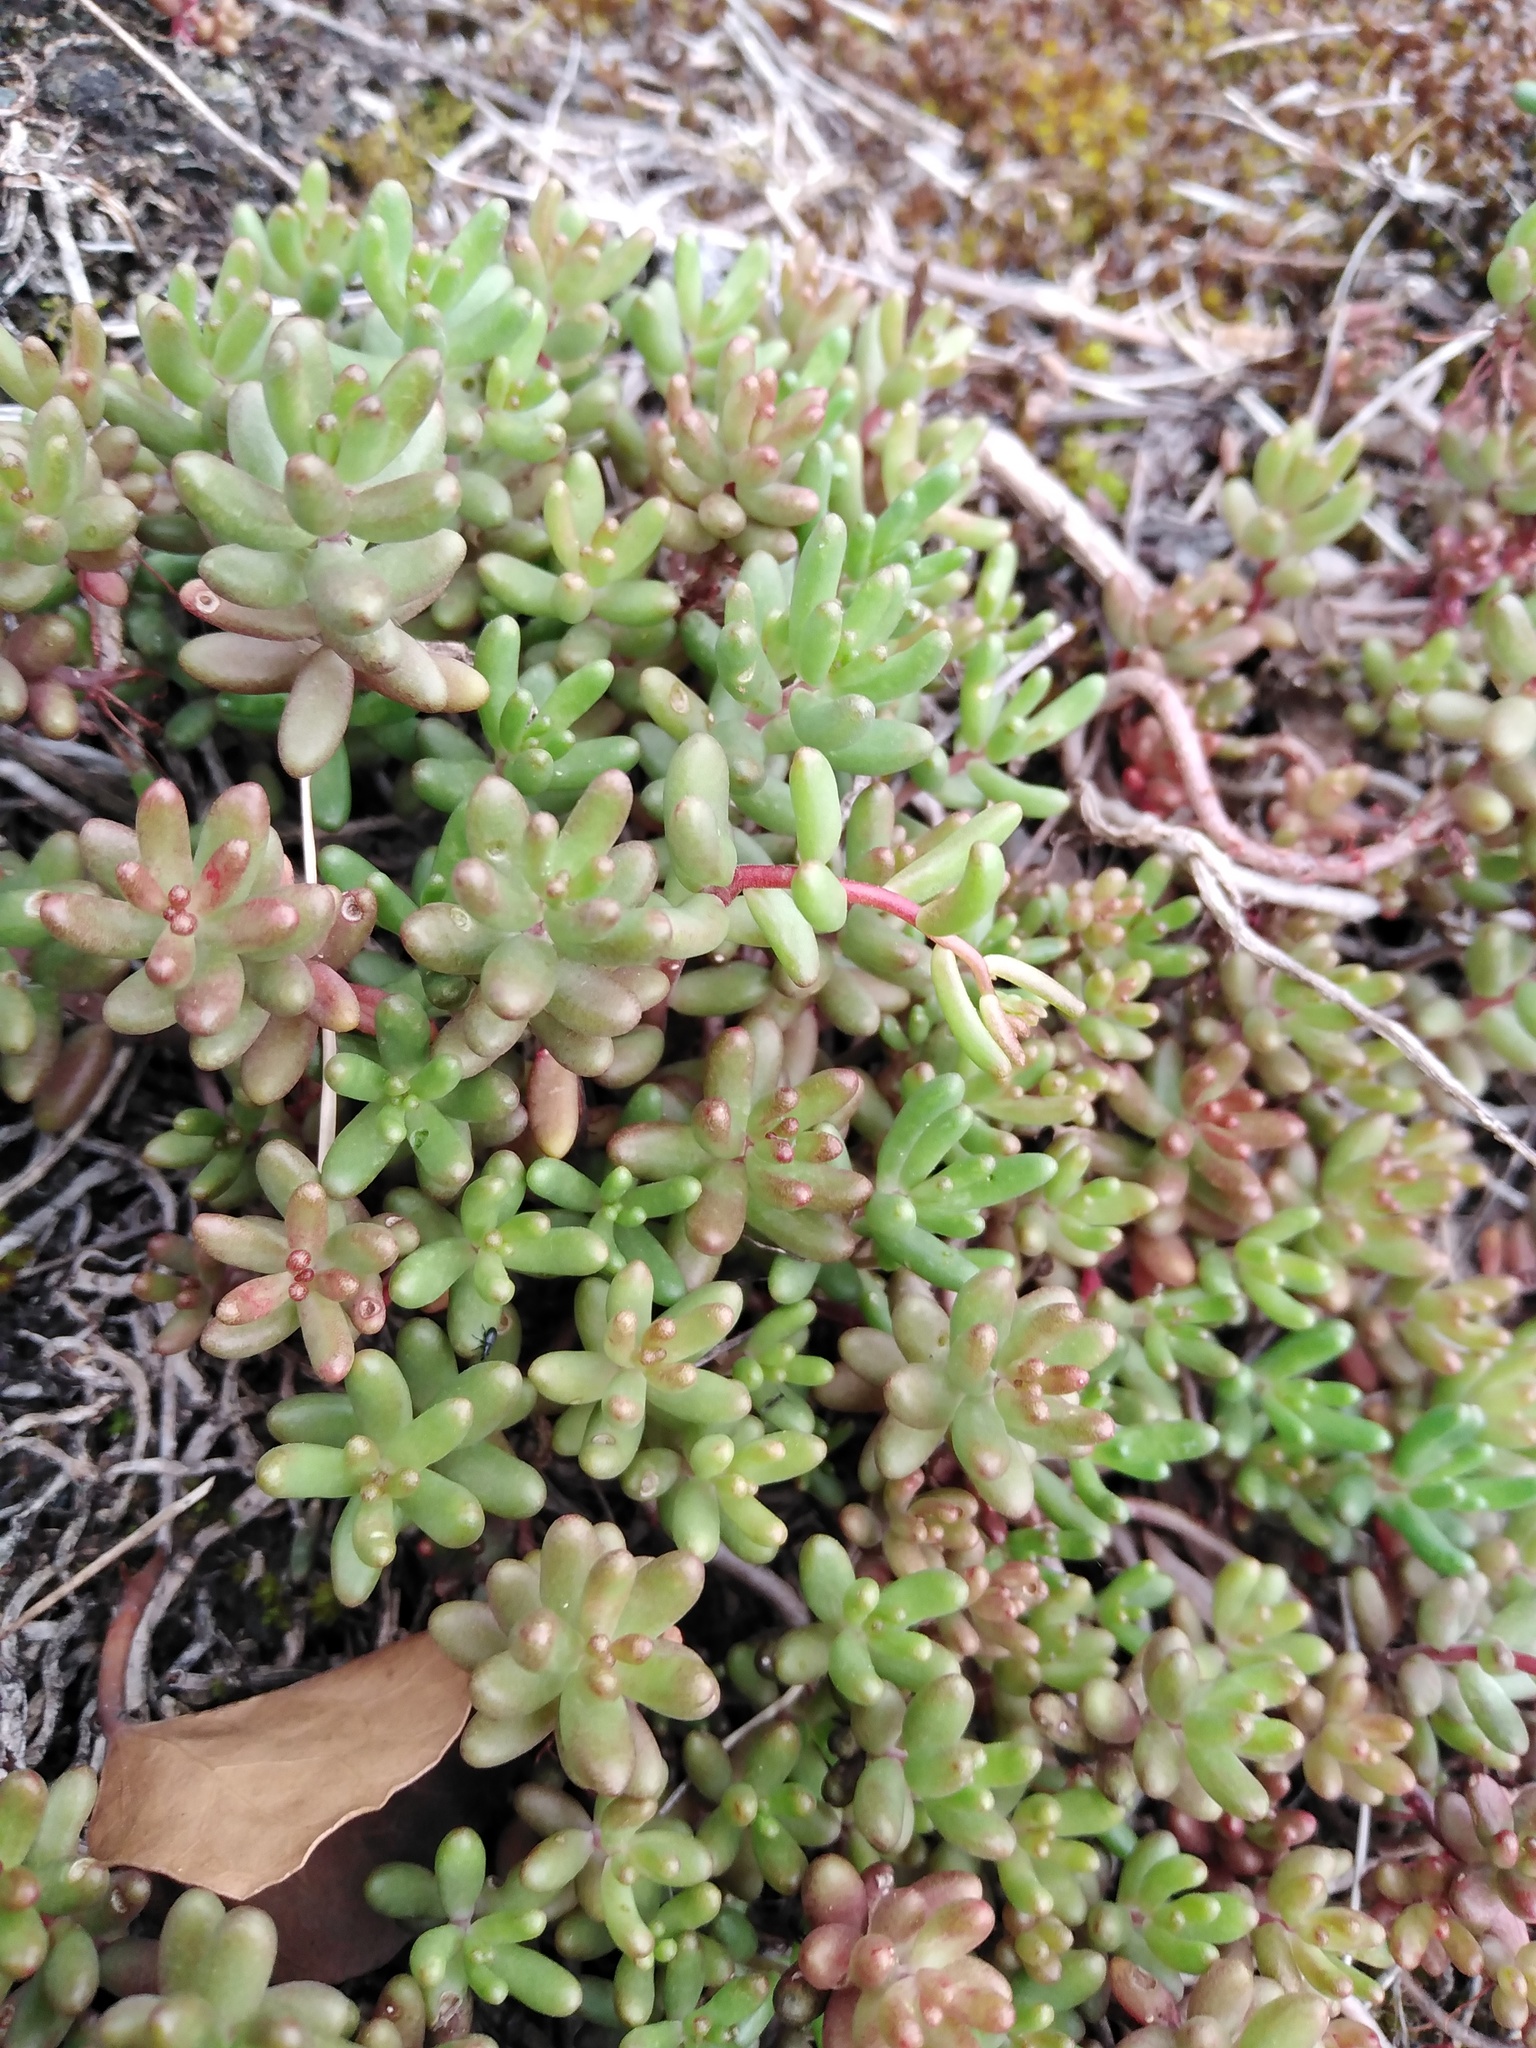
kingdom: Plantae
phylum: Tracheophyta
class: Magnoliopsida
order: Saxifragales
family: Crassulaceae
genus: Sedum
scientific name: Sedum album
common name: White stonecrop
